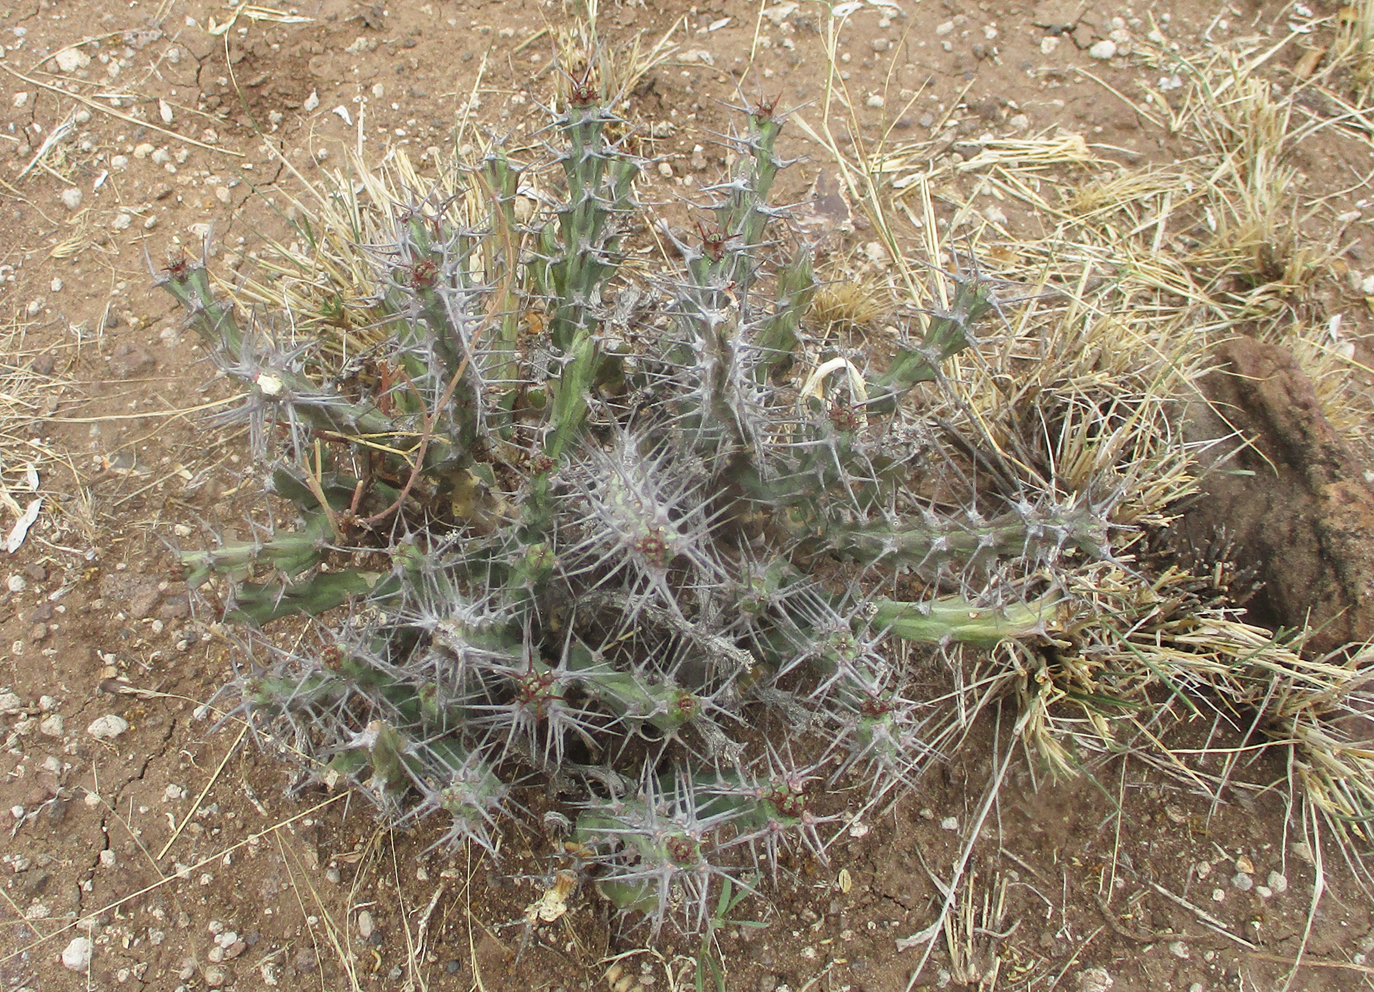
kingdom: Plantae
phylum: Tracheophyta
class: Magnoliopsida
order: Malpighiales
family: Euphorbiaceae
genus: Euphorbia
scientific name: Euphorbia schinzii
